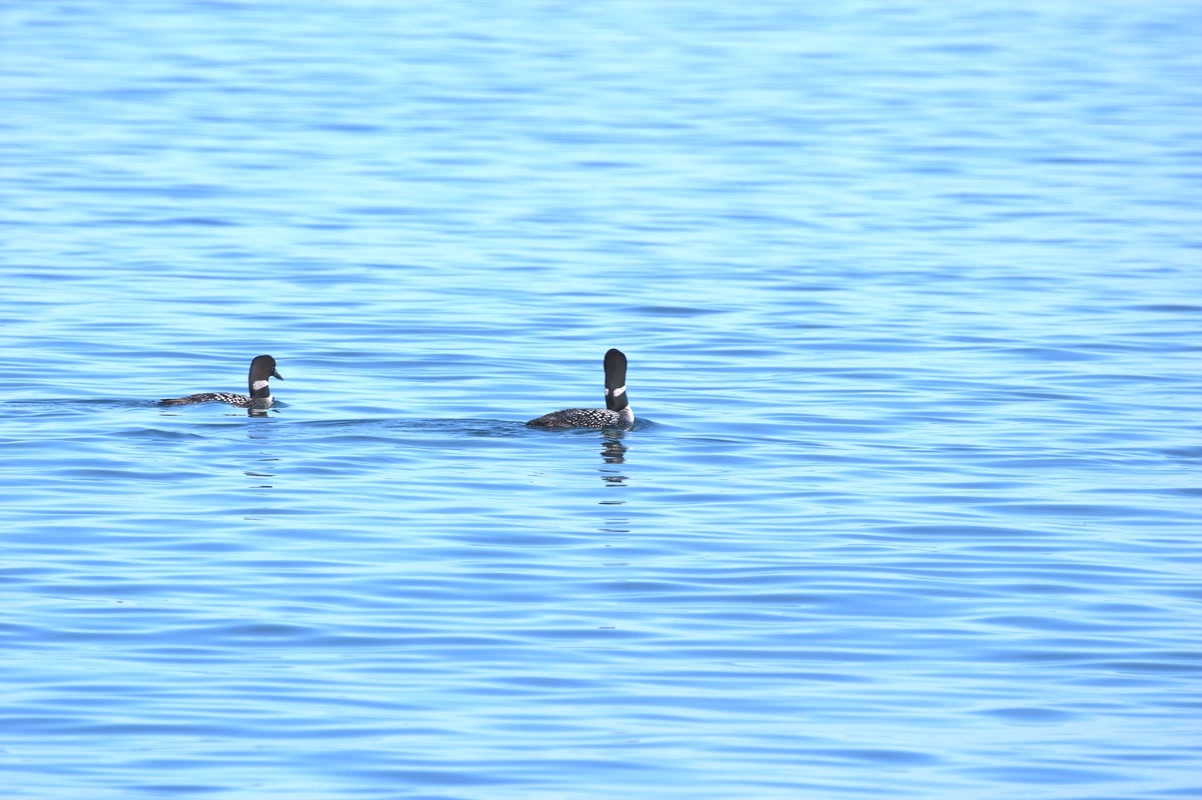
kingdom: Animalia
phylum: Chordata
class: Aves
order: Gaviiformes
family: Gaviidae
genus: Gavia
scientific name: Gavia immer
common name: Common loon
